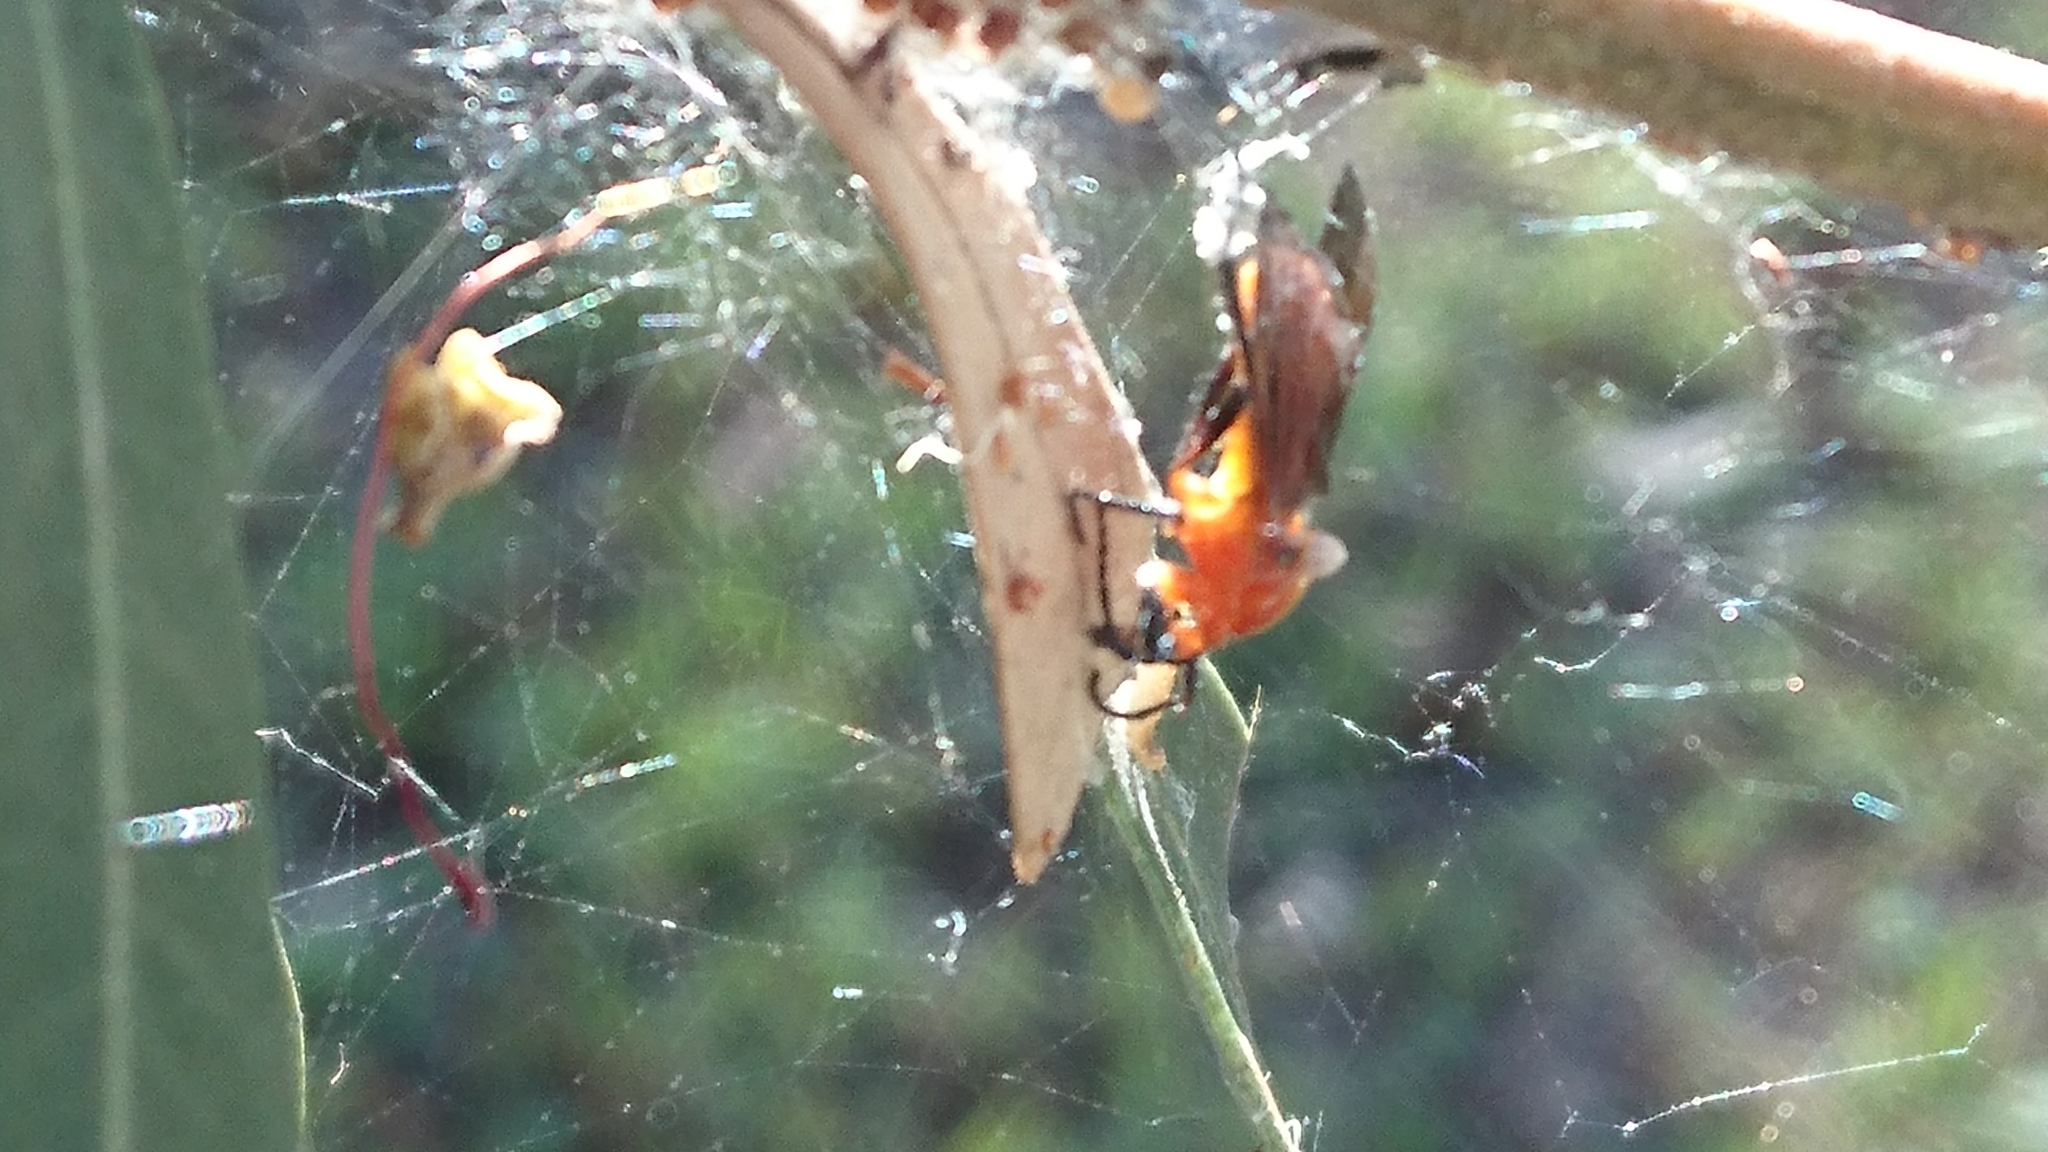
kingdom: Animalia
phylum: Arthropoda
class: Insecta
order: Diptera
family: Bibionidae
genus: Bibio
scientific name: Bibio imitator
